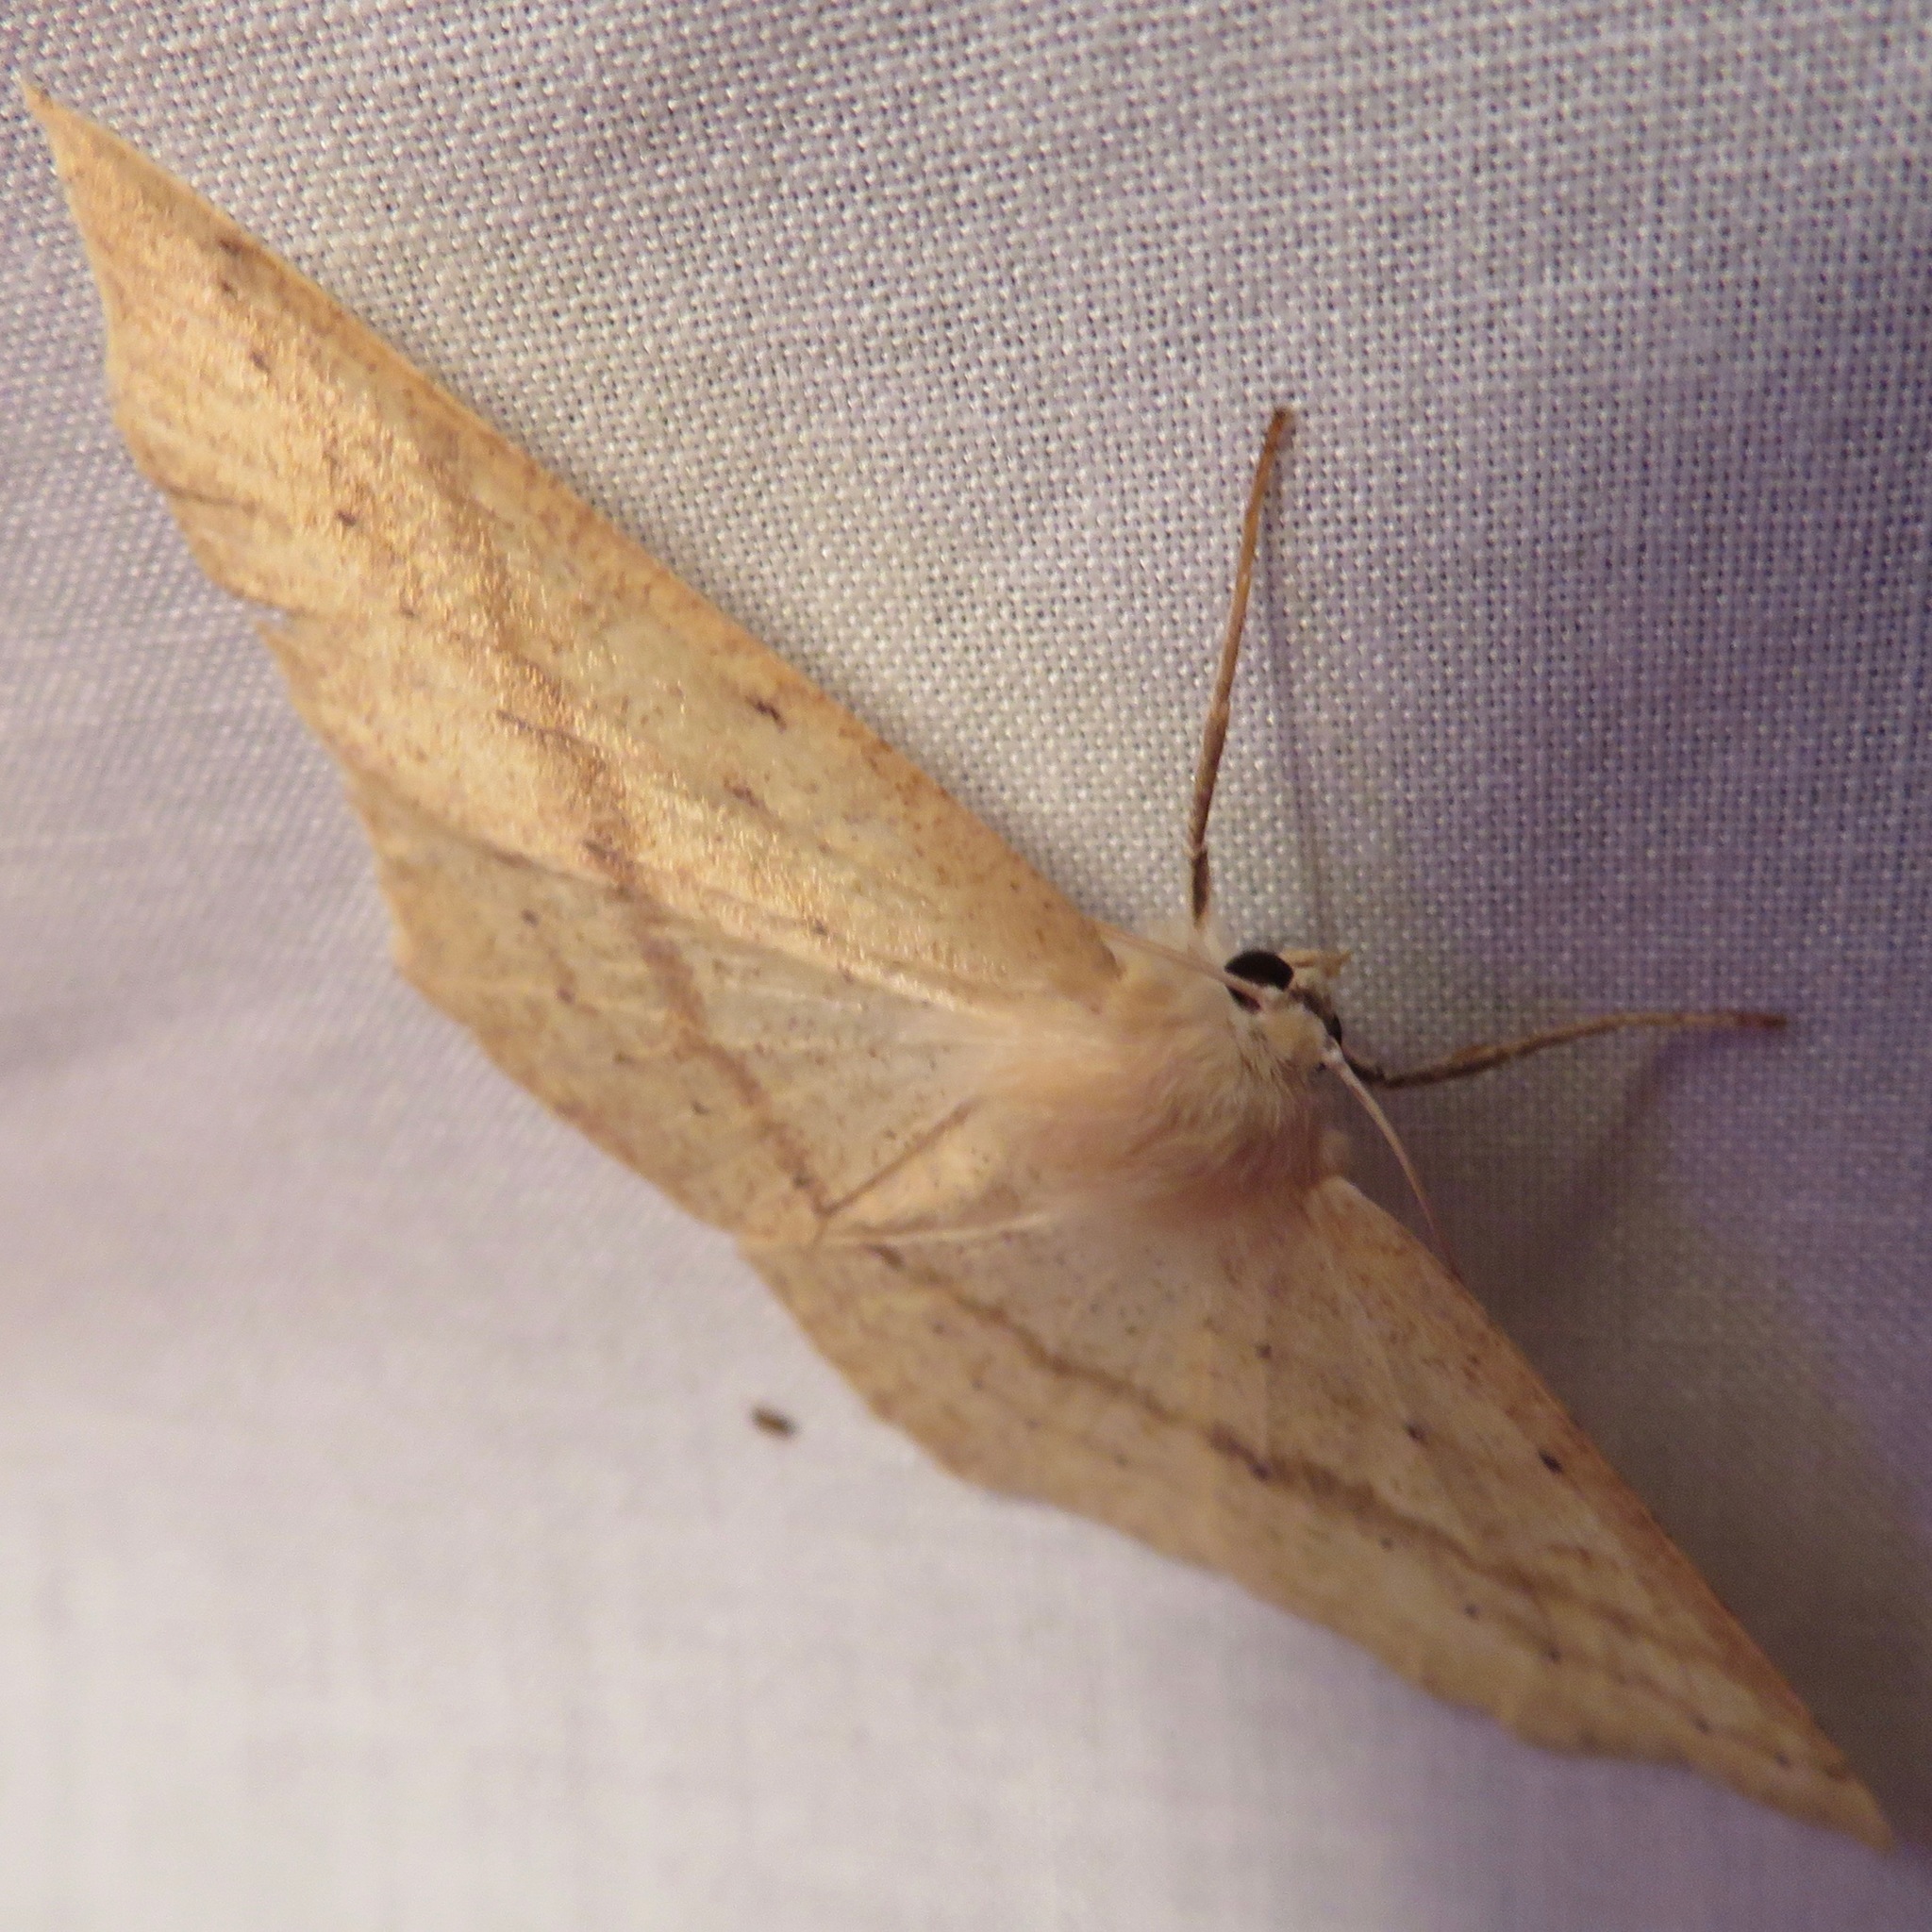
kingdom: Animalia
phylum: Arthropoda
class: Insecta
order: Lepidoptera
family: Geometridae
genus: Sabulodes
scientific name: Sabulodes aegrotata
